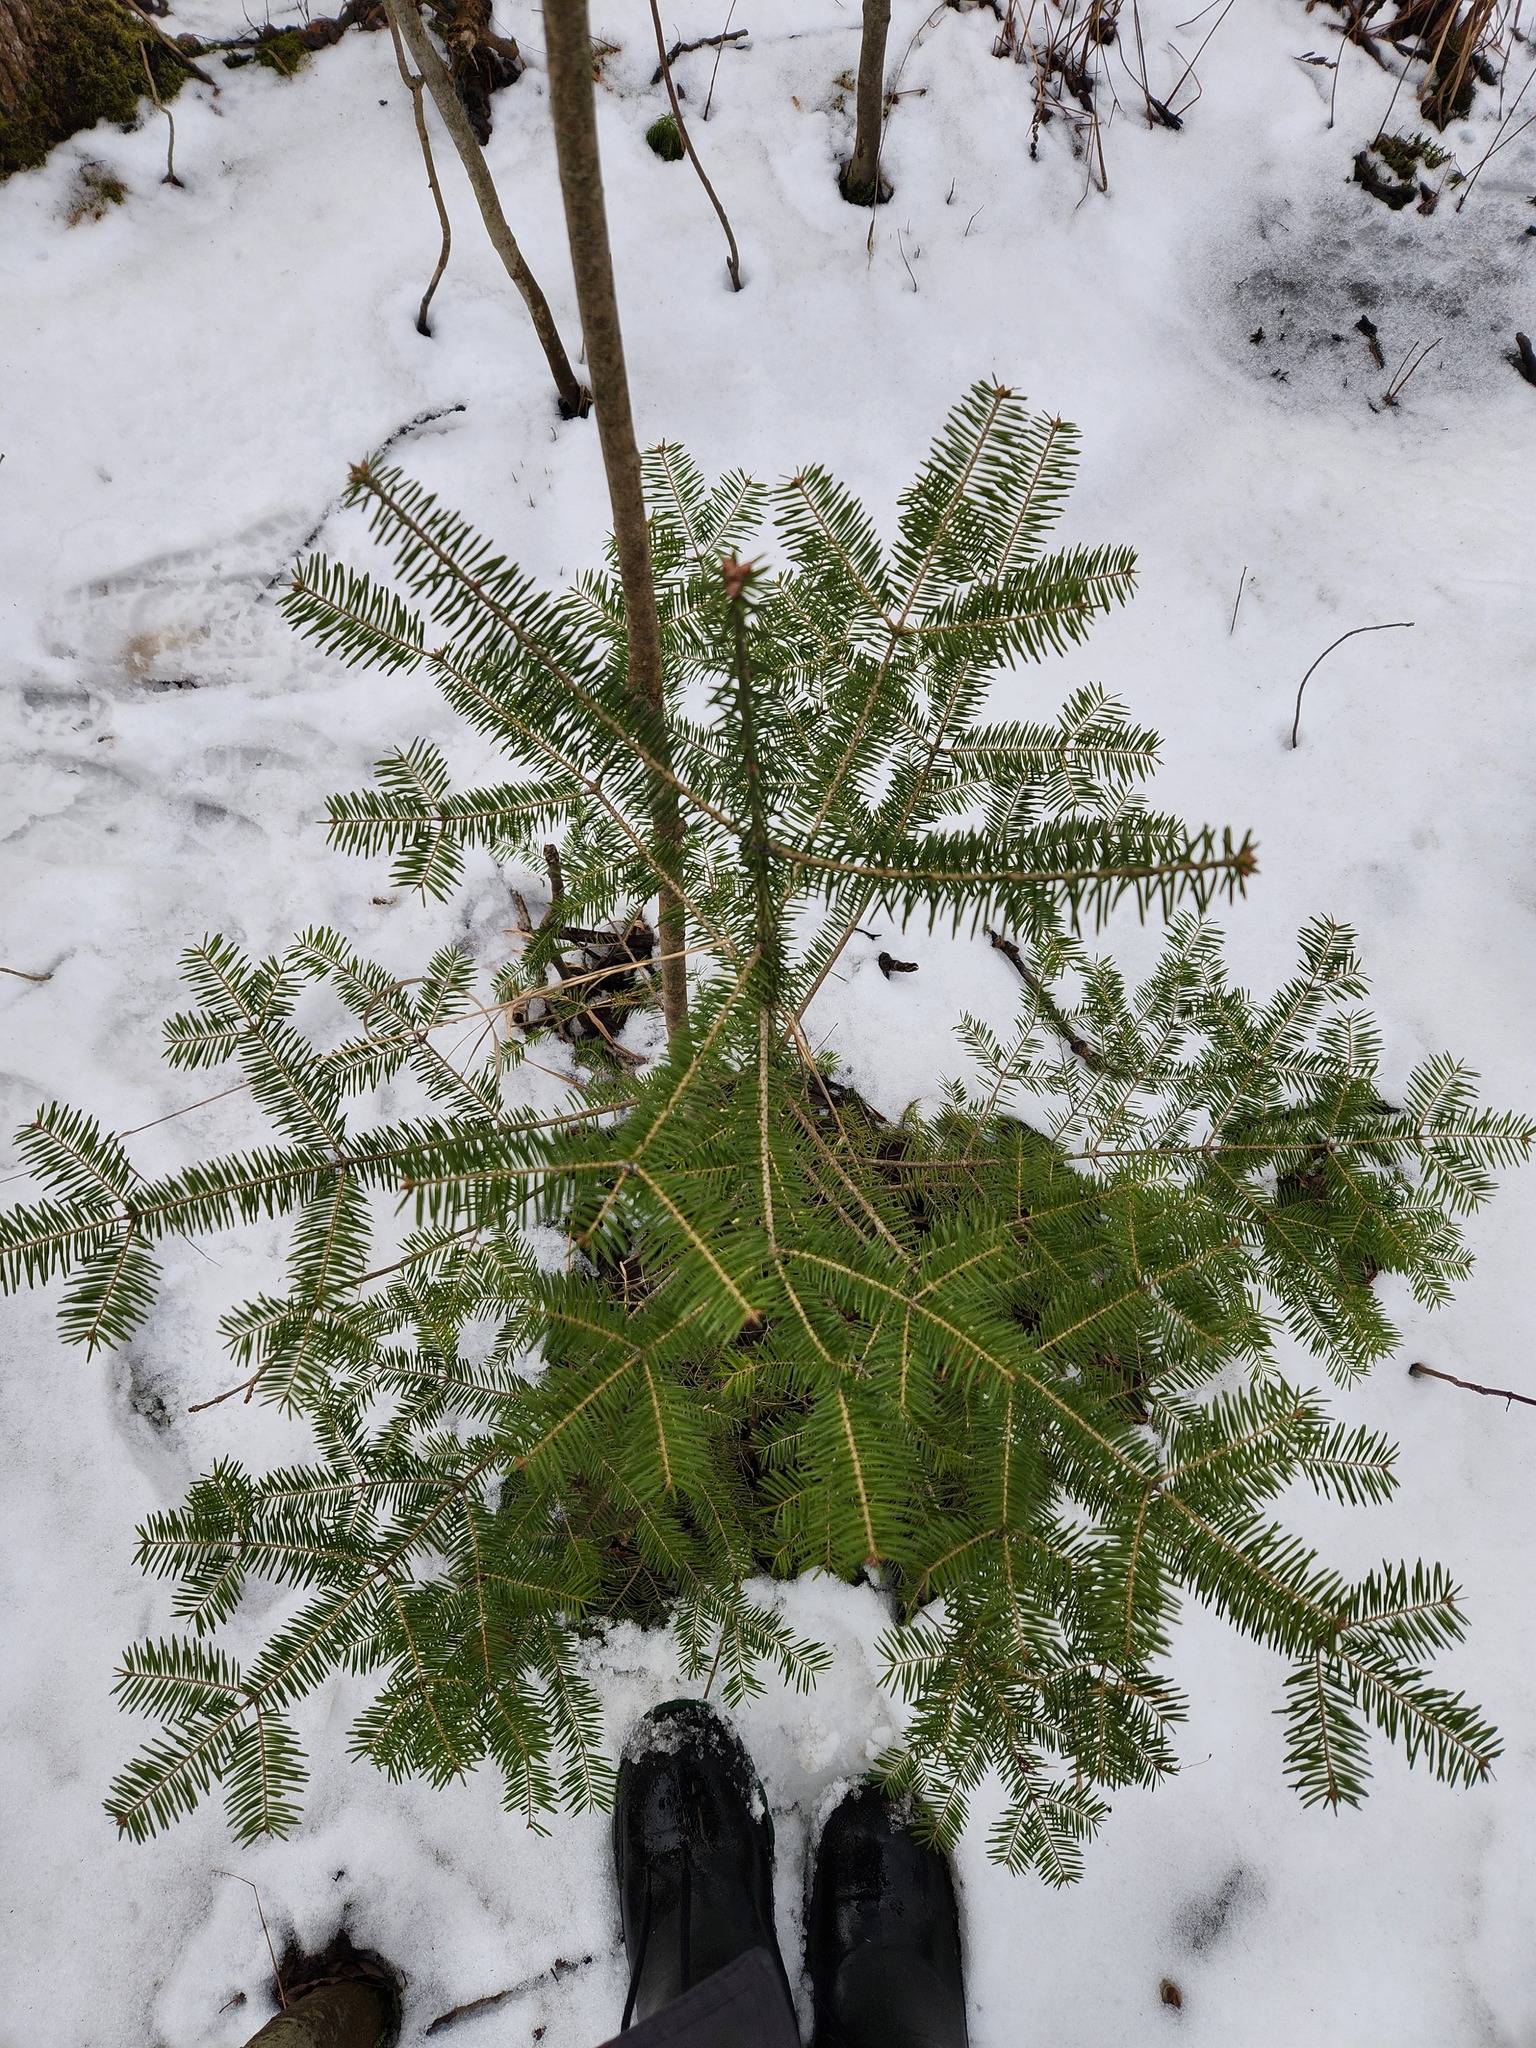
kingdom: Plantae
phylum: Tracheophyta
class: Pinopsida
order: Pinales
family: Pinaceae
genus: Abies
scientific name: Abies balsamea
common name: Balsam fir
